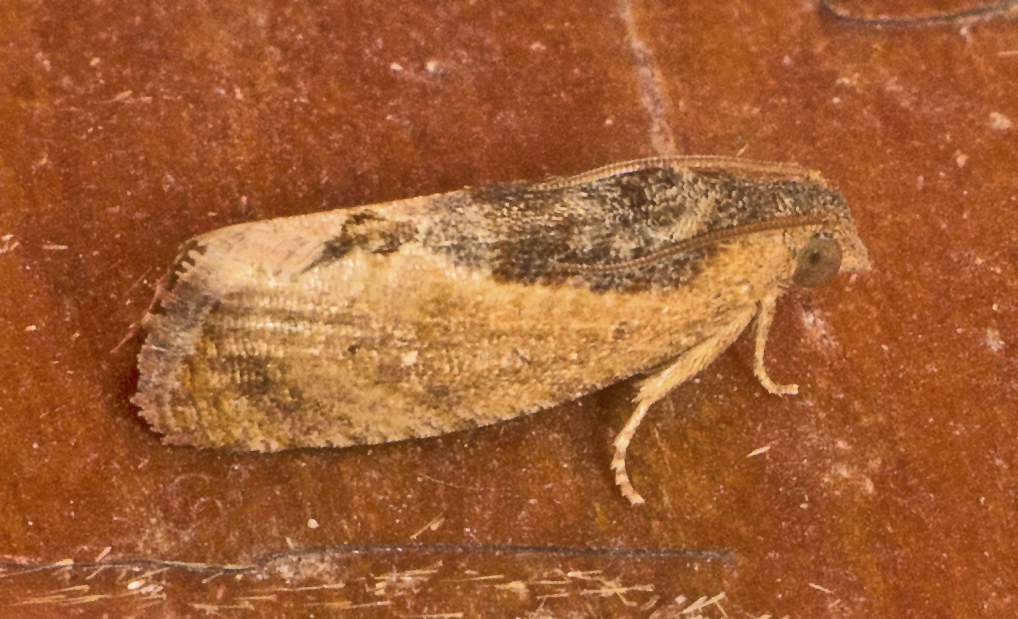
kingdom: Animalia
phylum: Arthropoda
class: Insecta
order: Lepidoptera
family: Tortricidae
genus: Cryptophlebia
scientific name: Cryptophlebia ombrodelta
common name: Litchi fruit moth
